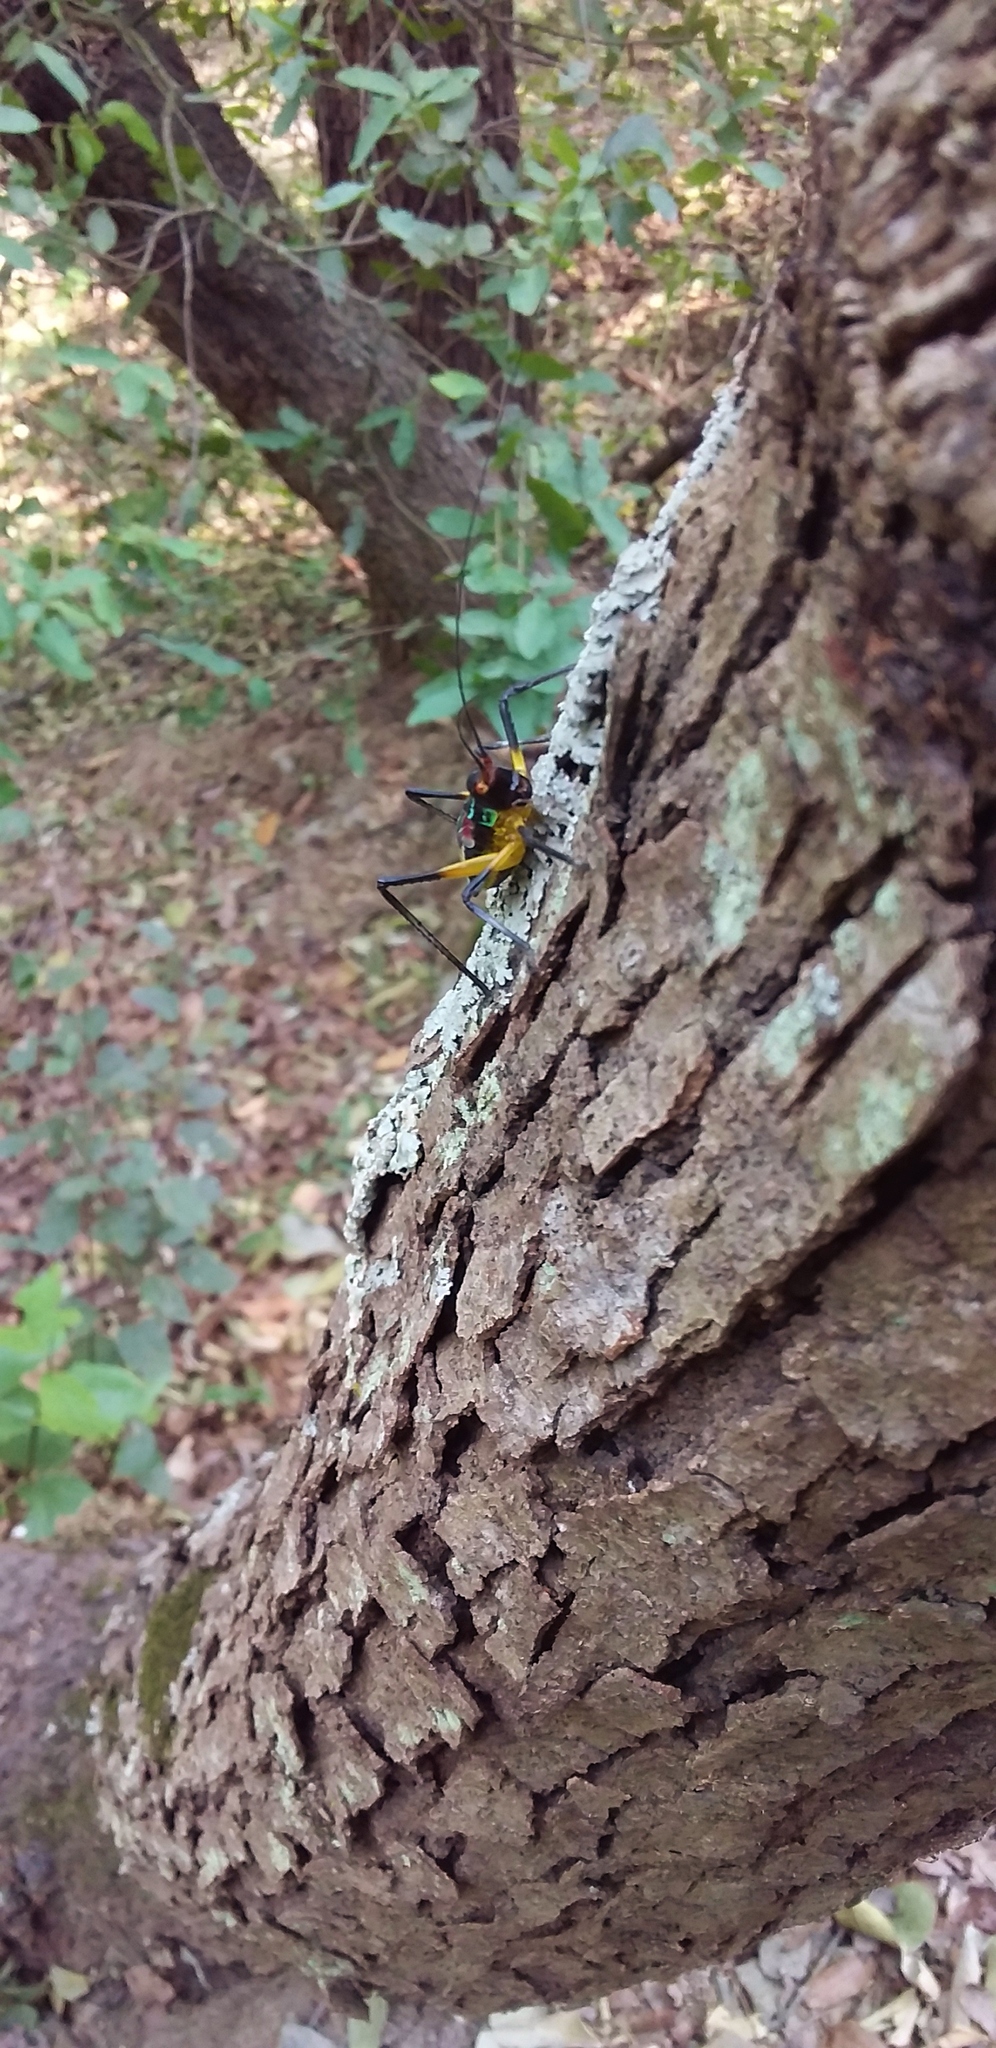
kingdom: Animalia
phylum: Arthropoda
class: Insecta
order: Orthoptera
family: Tettigoniidae
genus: Pterophylla
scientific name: Pterophylla beltrani
